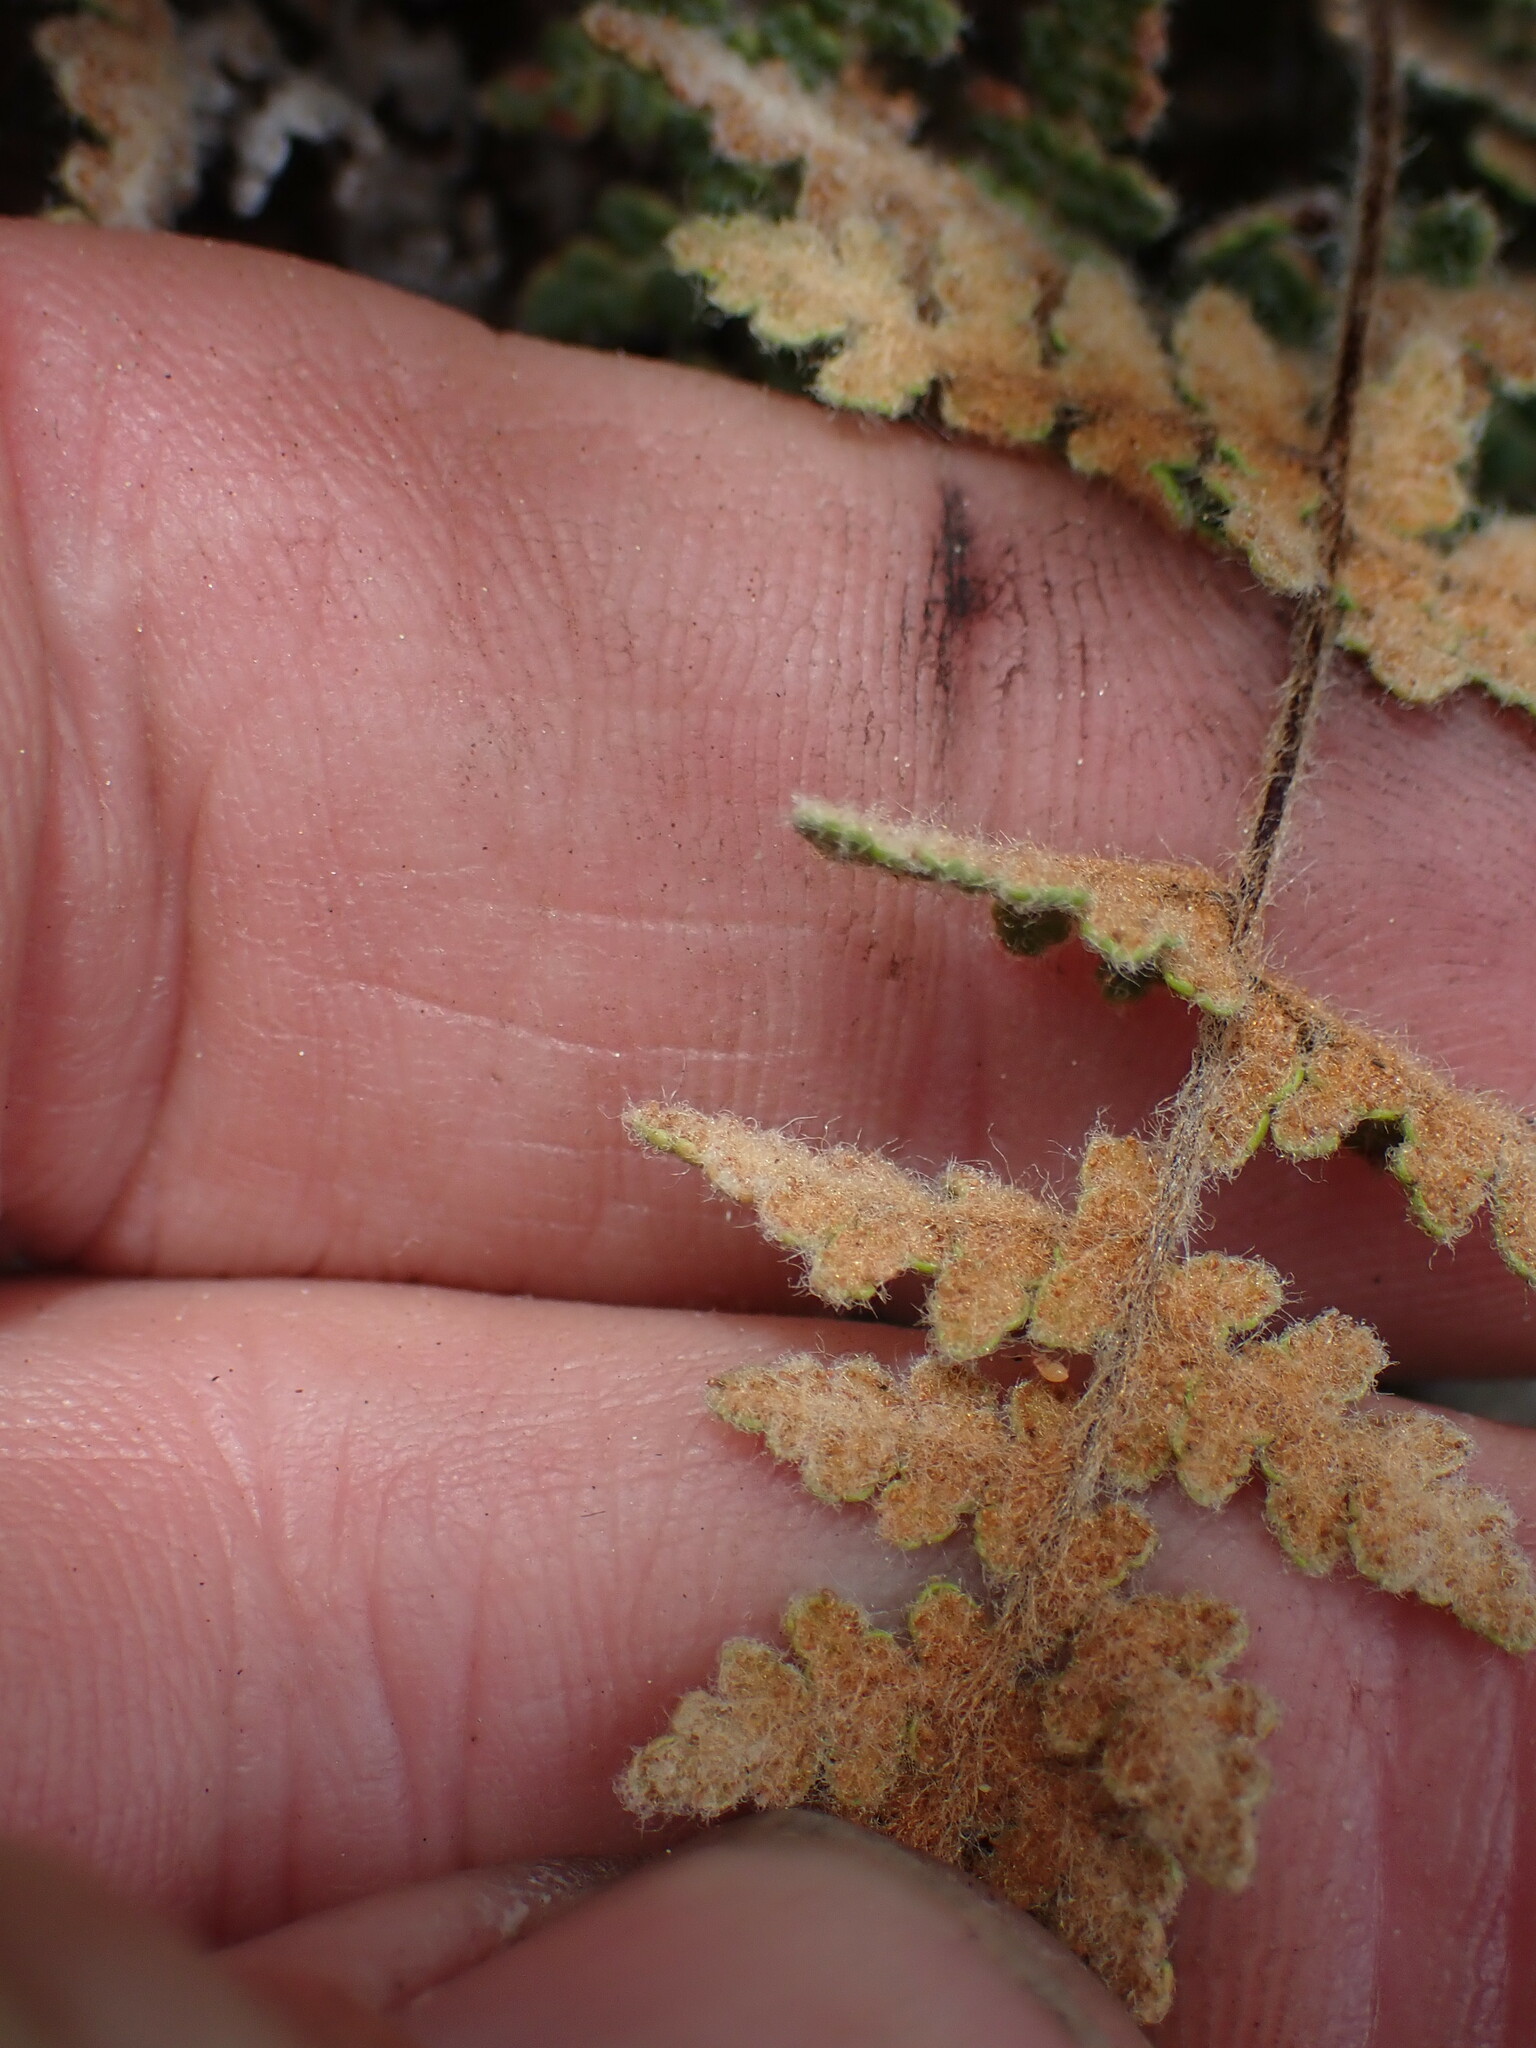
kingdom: Plantae
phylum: Tracheophyta
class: Polypodiopsida
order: Polypodiales
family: Pteridaceae
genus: Myriopteris
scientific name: Myriopteris gracilis
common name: Fee's lip fern
